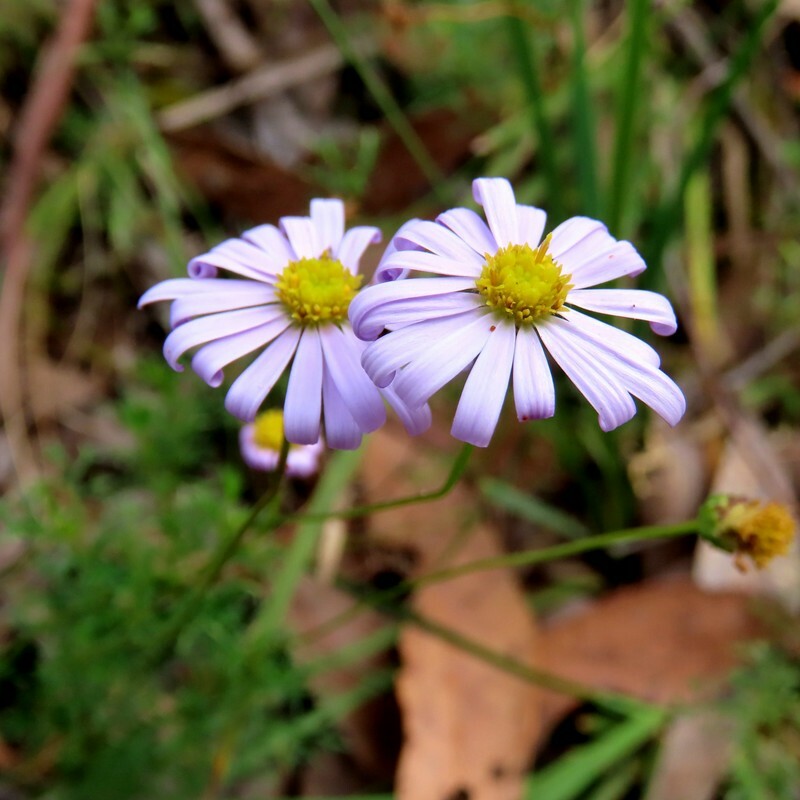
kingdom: Plantae
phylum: Tracheophyta
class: Magnoliopsida
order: Asterales
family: Asteraceae
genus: Brachyscome
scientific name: Brachyscome multifida
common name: Cut-leaf daisy
